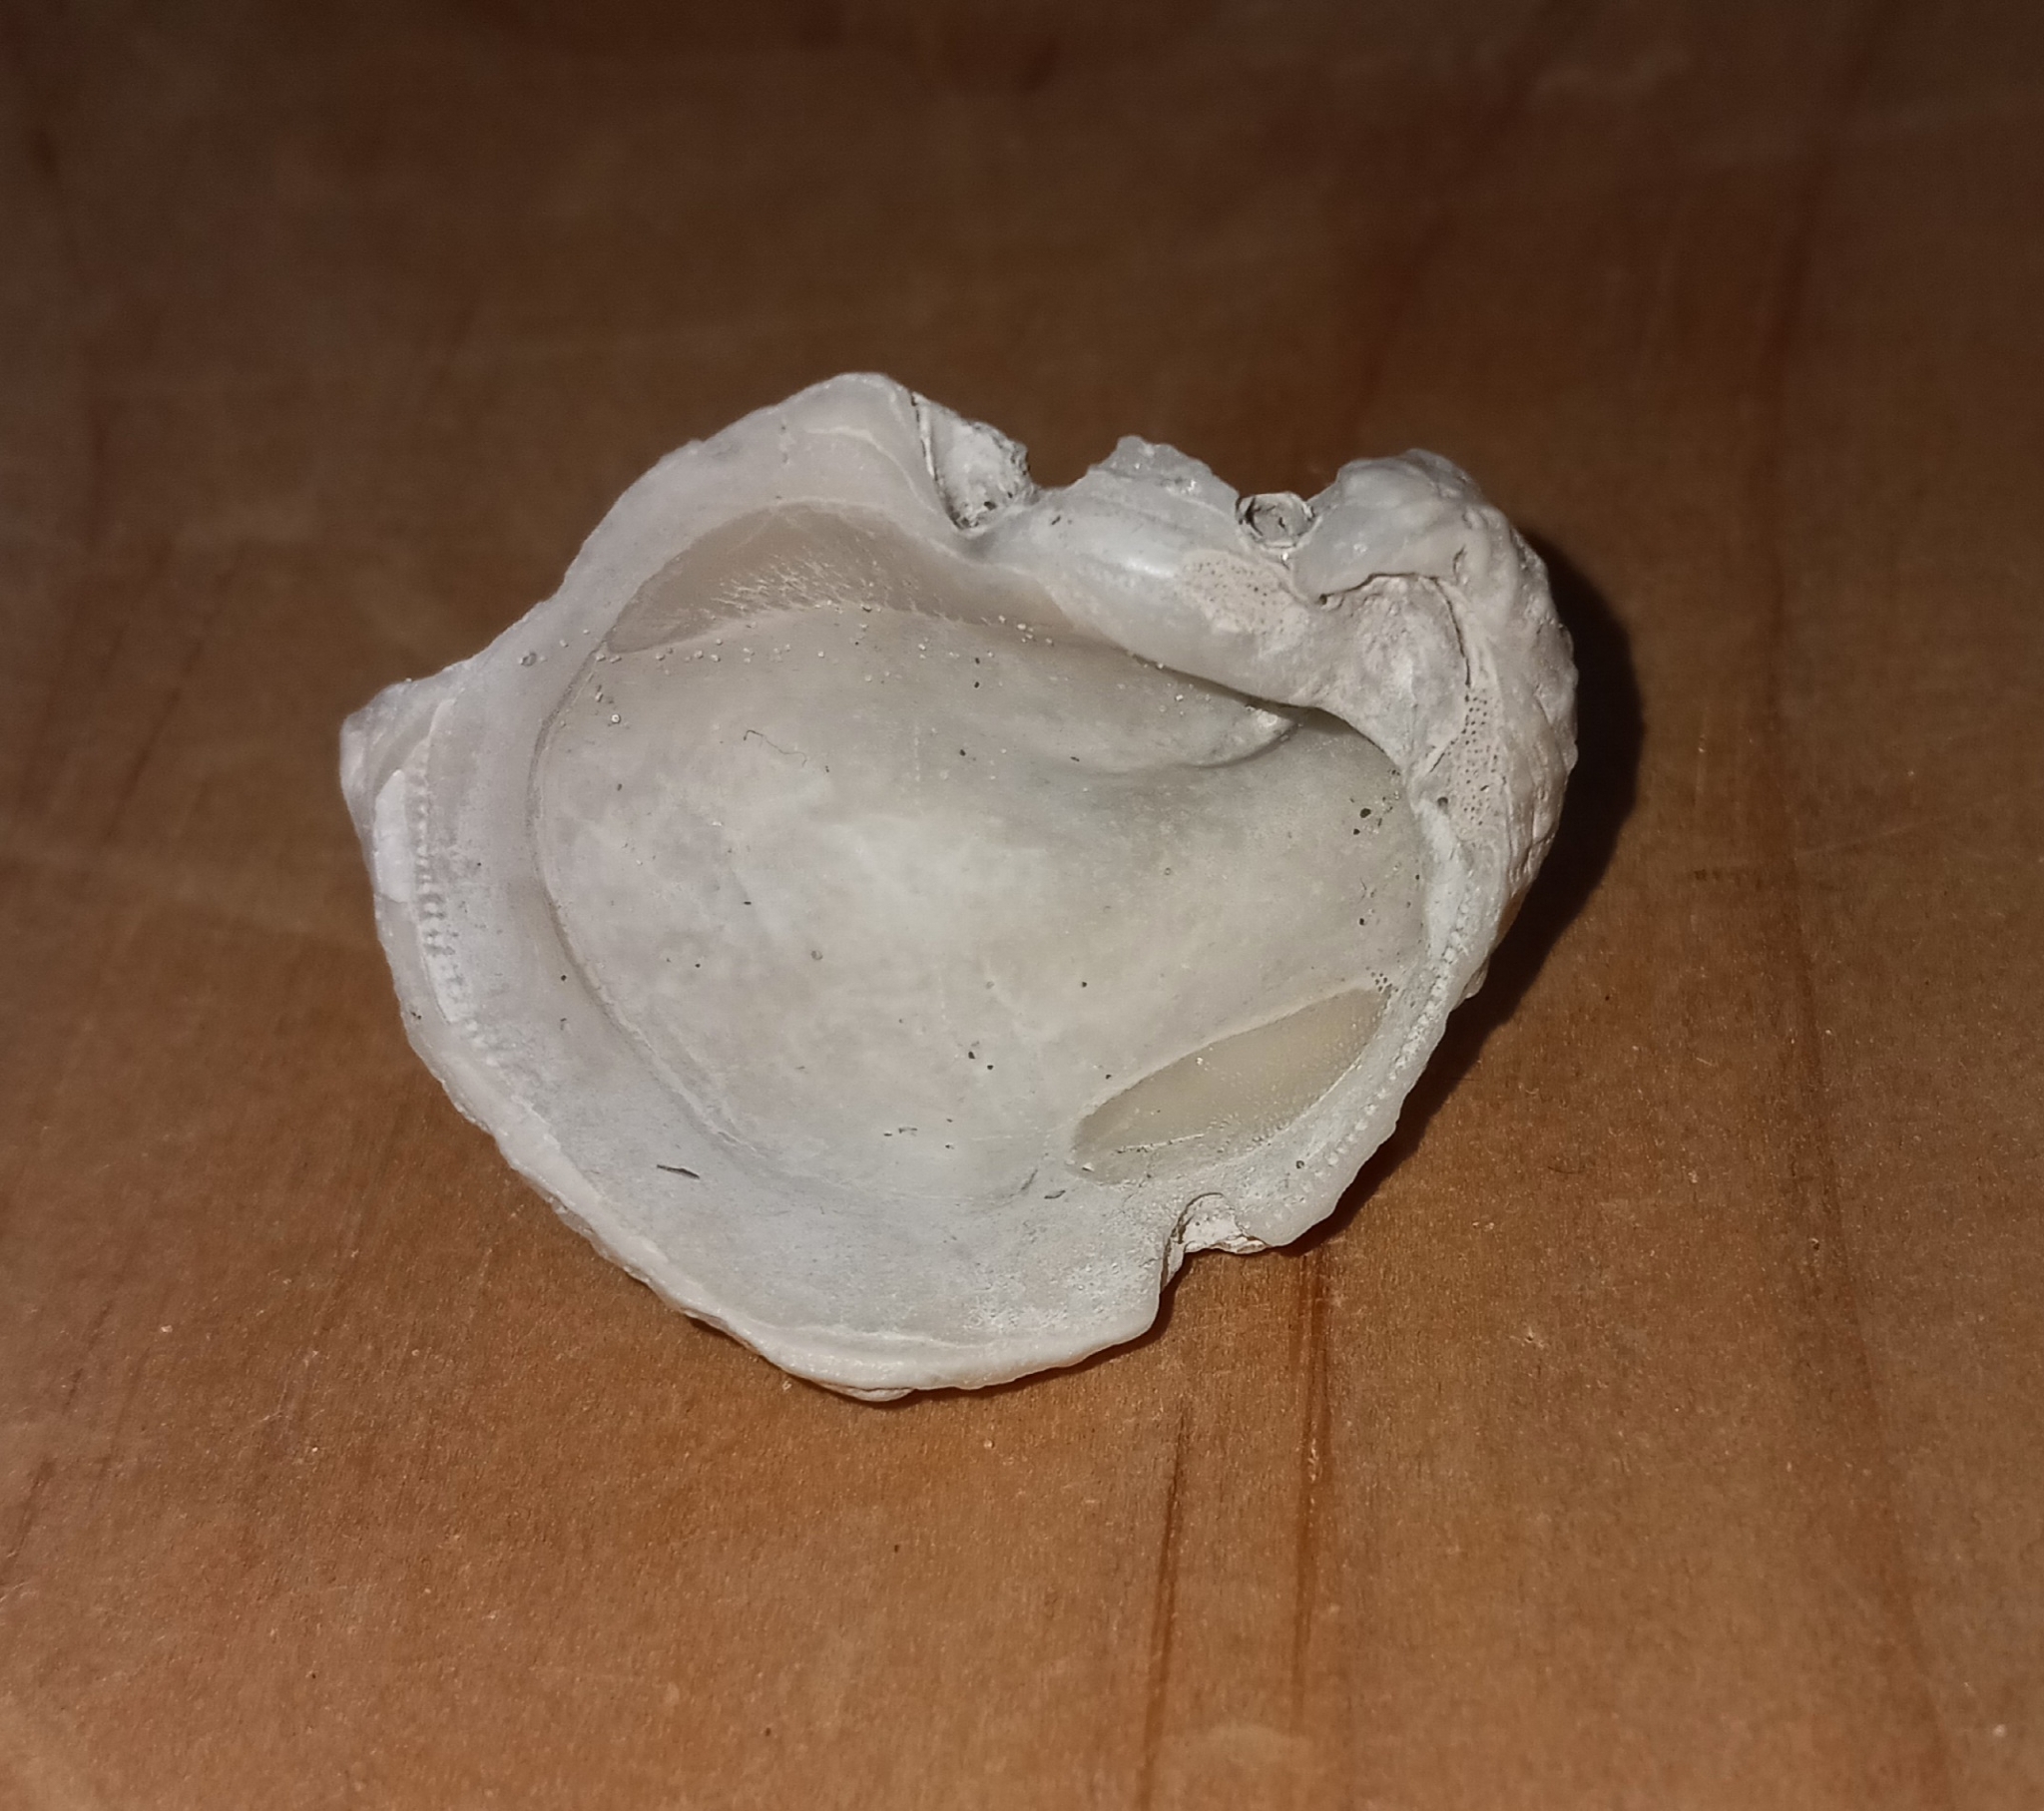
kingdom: Animalia
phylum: Mollusca
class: Bivalvia
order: Ostreida
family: Ostreidae
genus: Crassostrea
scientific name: Crassostrea virginica
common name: American oyster
